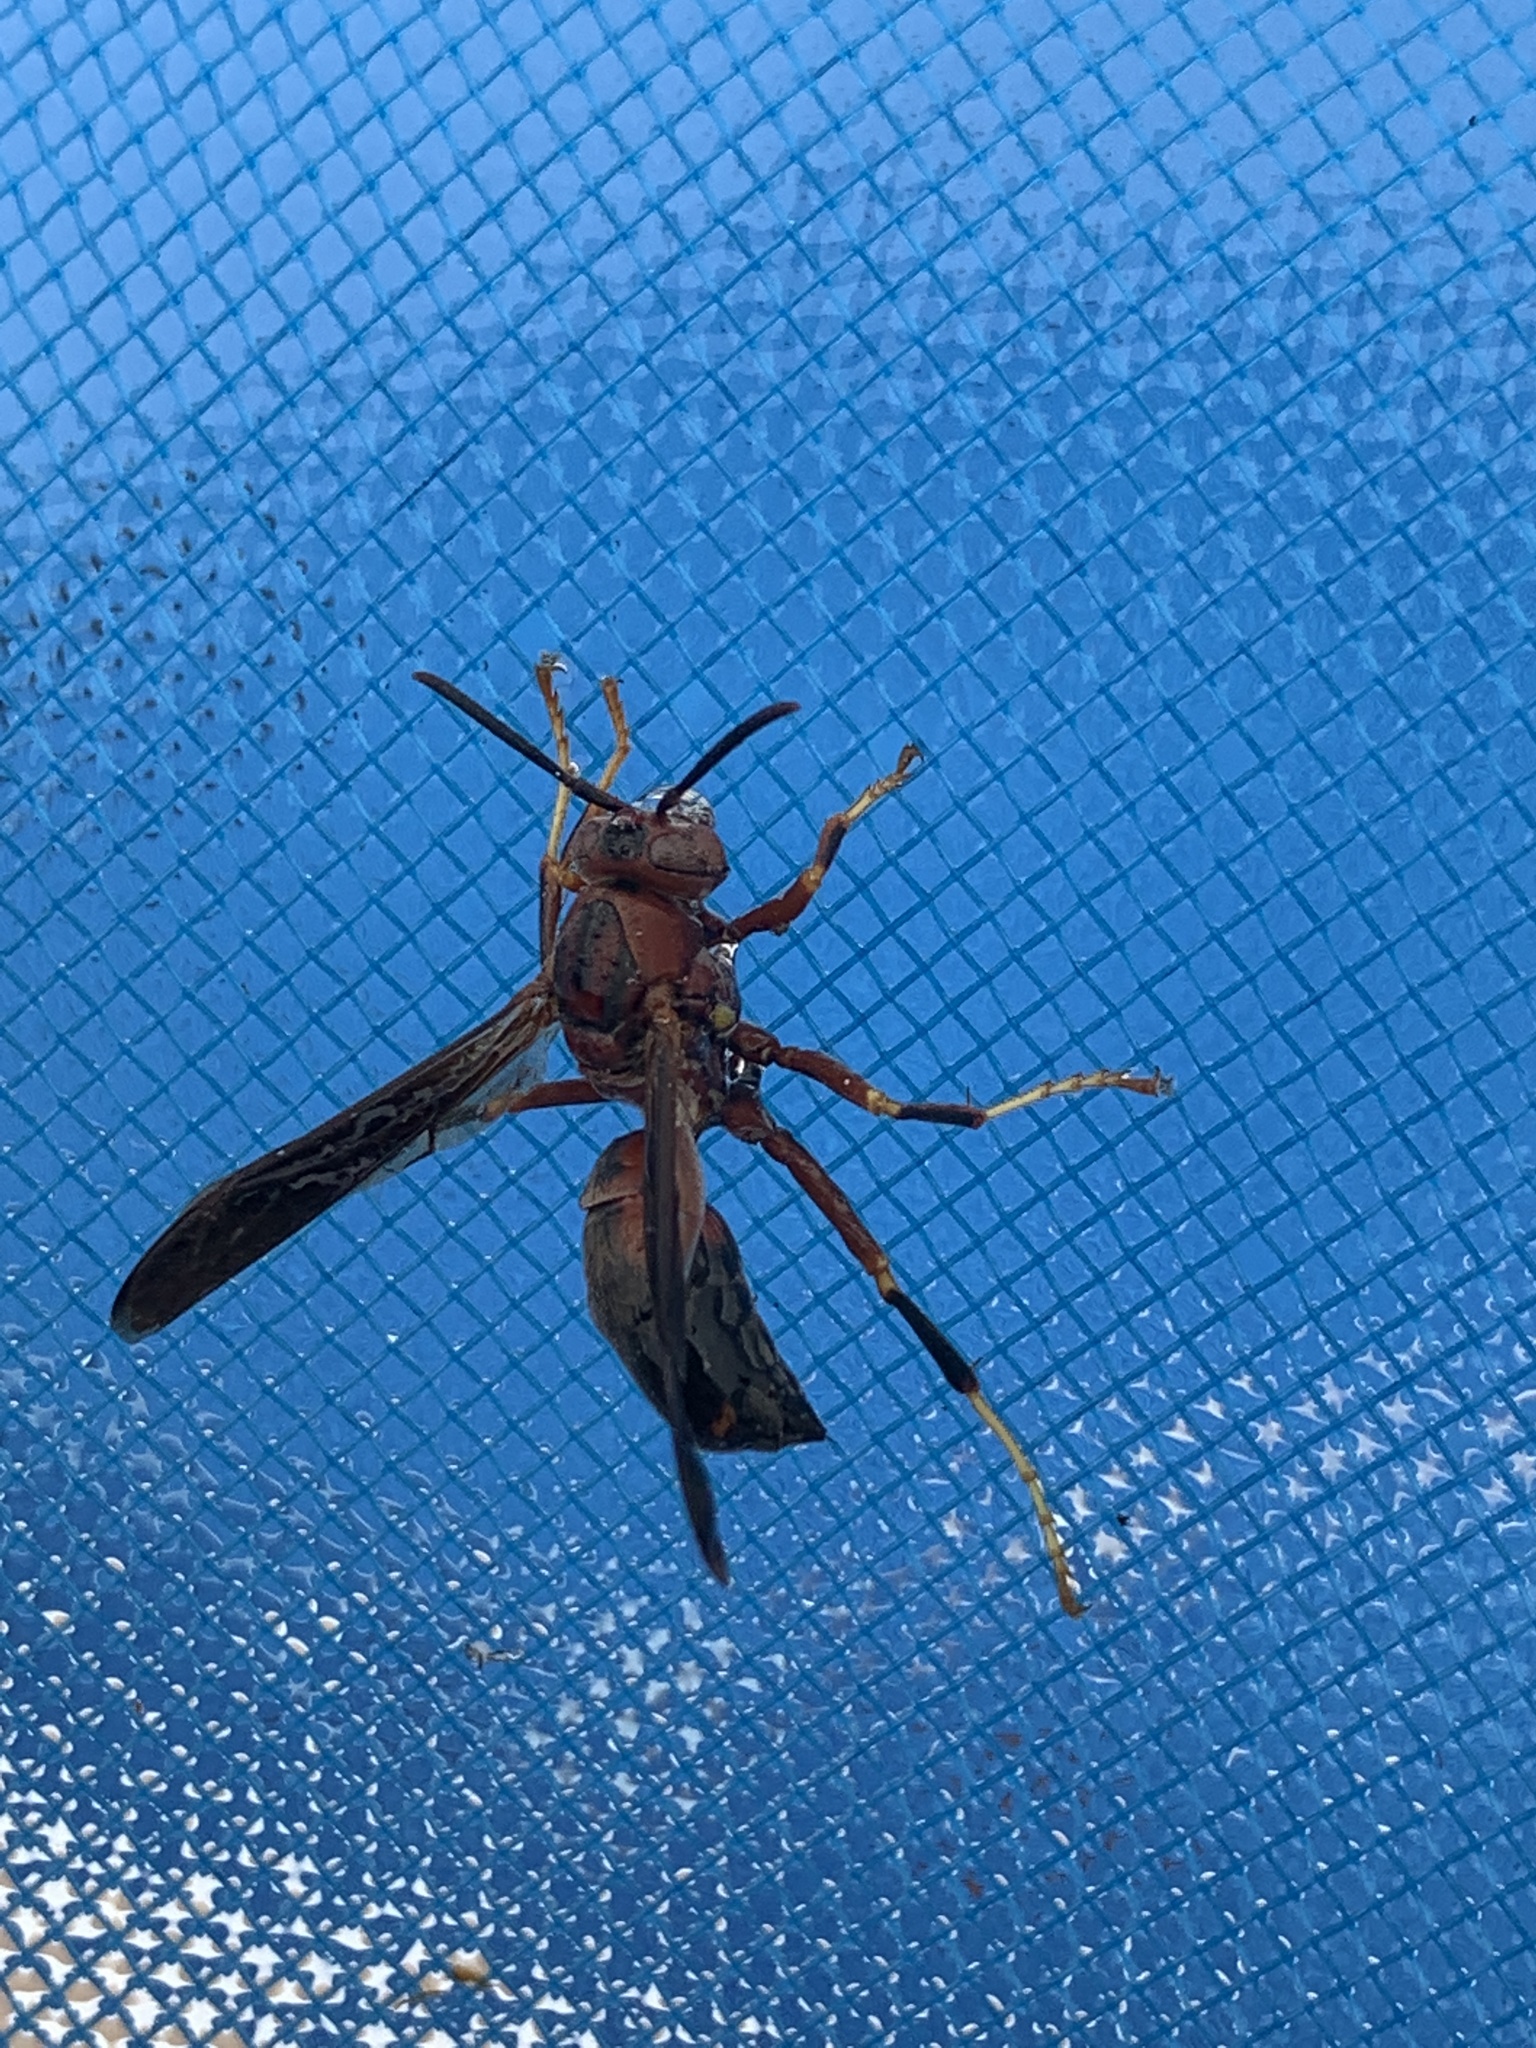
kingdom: Animalia
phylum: Arthropoda
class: Insecta
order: Hymenoptera
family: Eumenidae
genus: Polistes
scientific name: Polistes metricus
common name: Metric paper wasp
